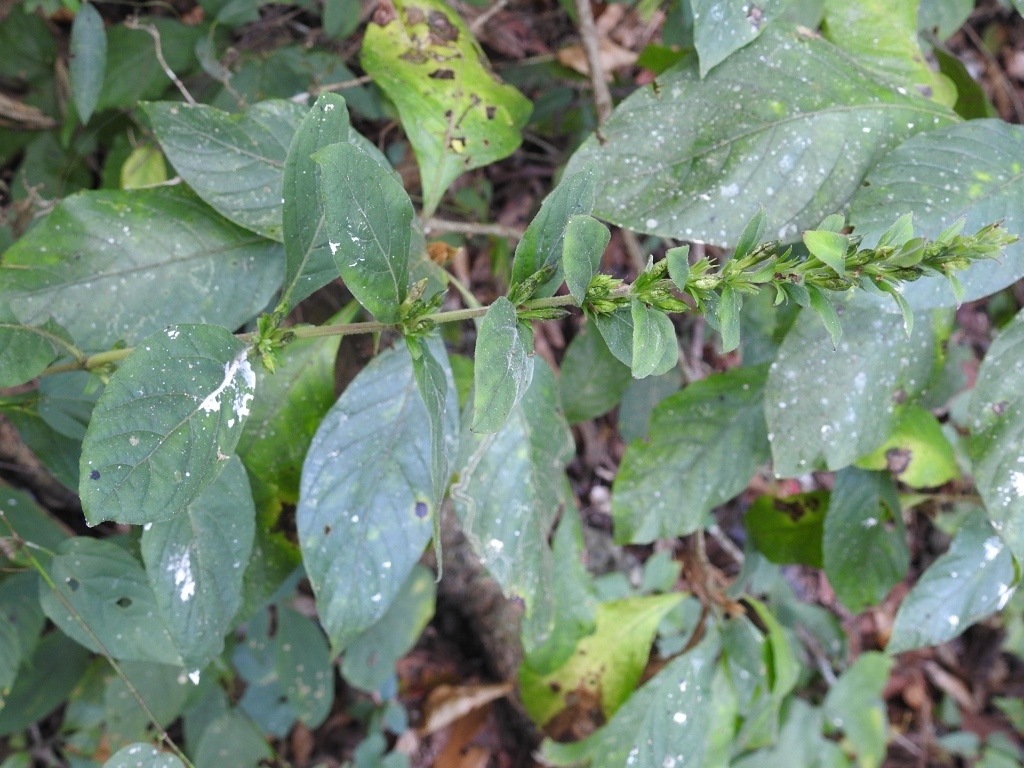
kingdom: Plantae
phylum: Tracheophyta
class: Magnoliopsida
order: Lamiales
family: Acanthaceae
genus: Dyschoriste
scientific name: Dyschoriste hirsutissima
